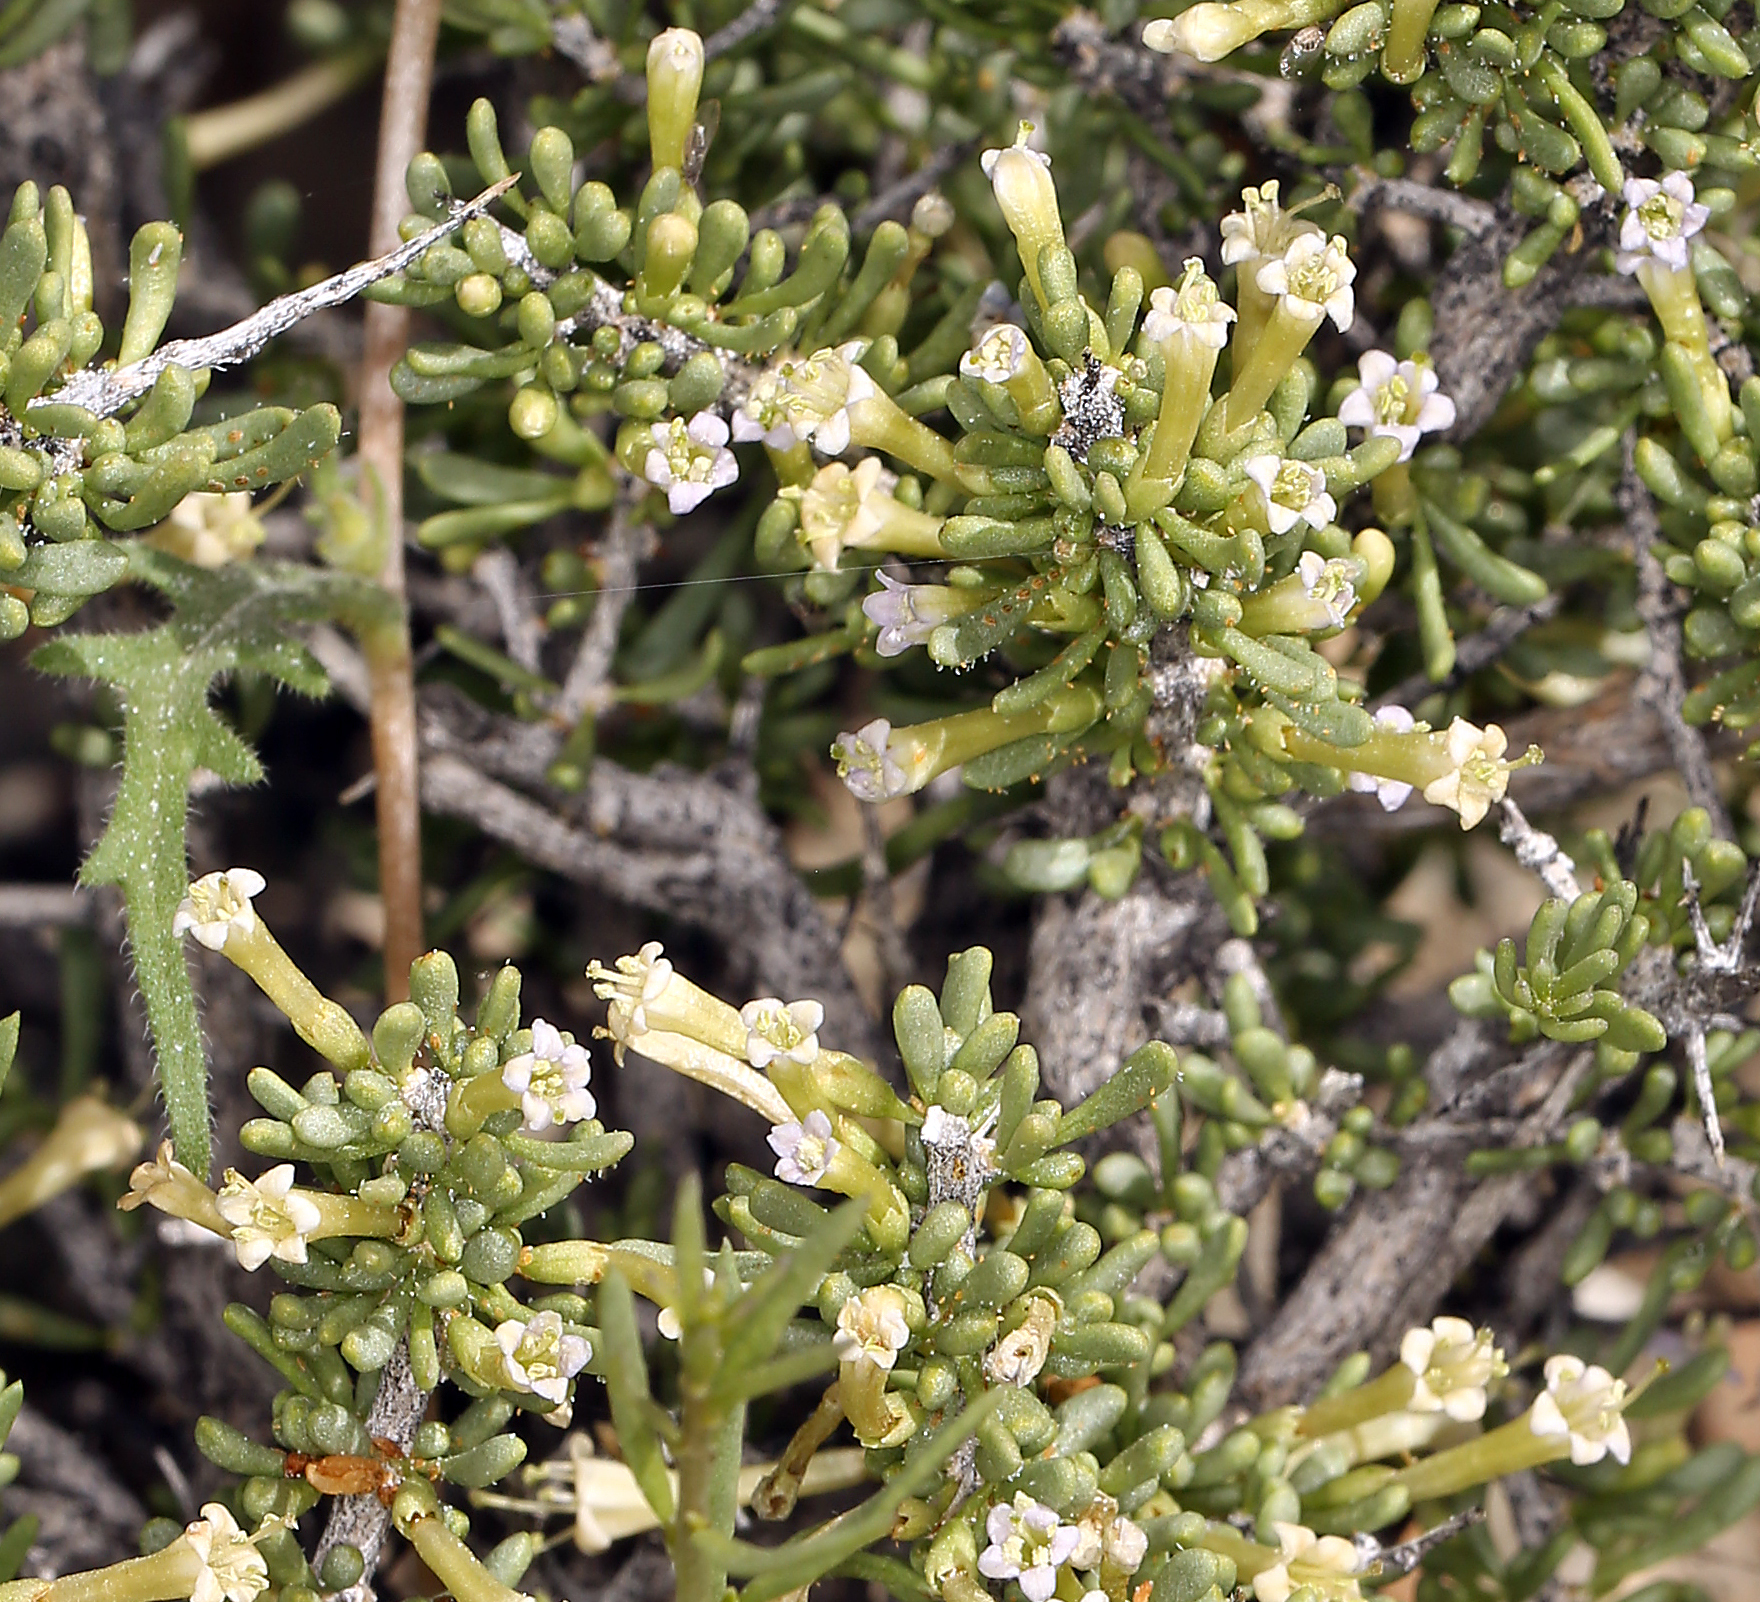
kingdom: Plantae
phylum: Tracheophyta
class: Magnoliopsida
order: Solanales
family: Solanaceae
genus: Lycium
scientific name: Lycium andersonii
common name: Water-jacket
